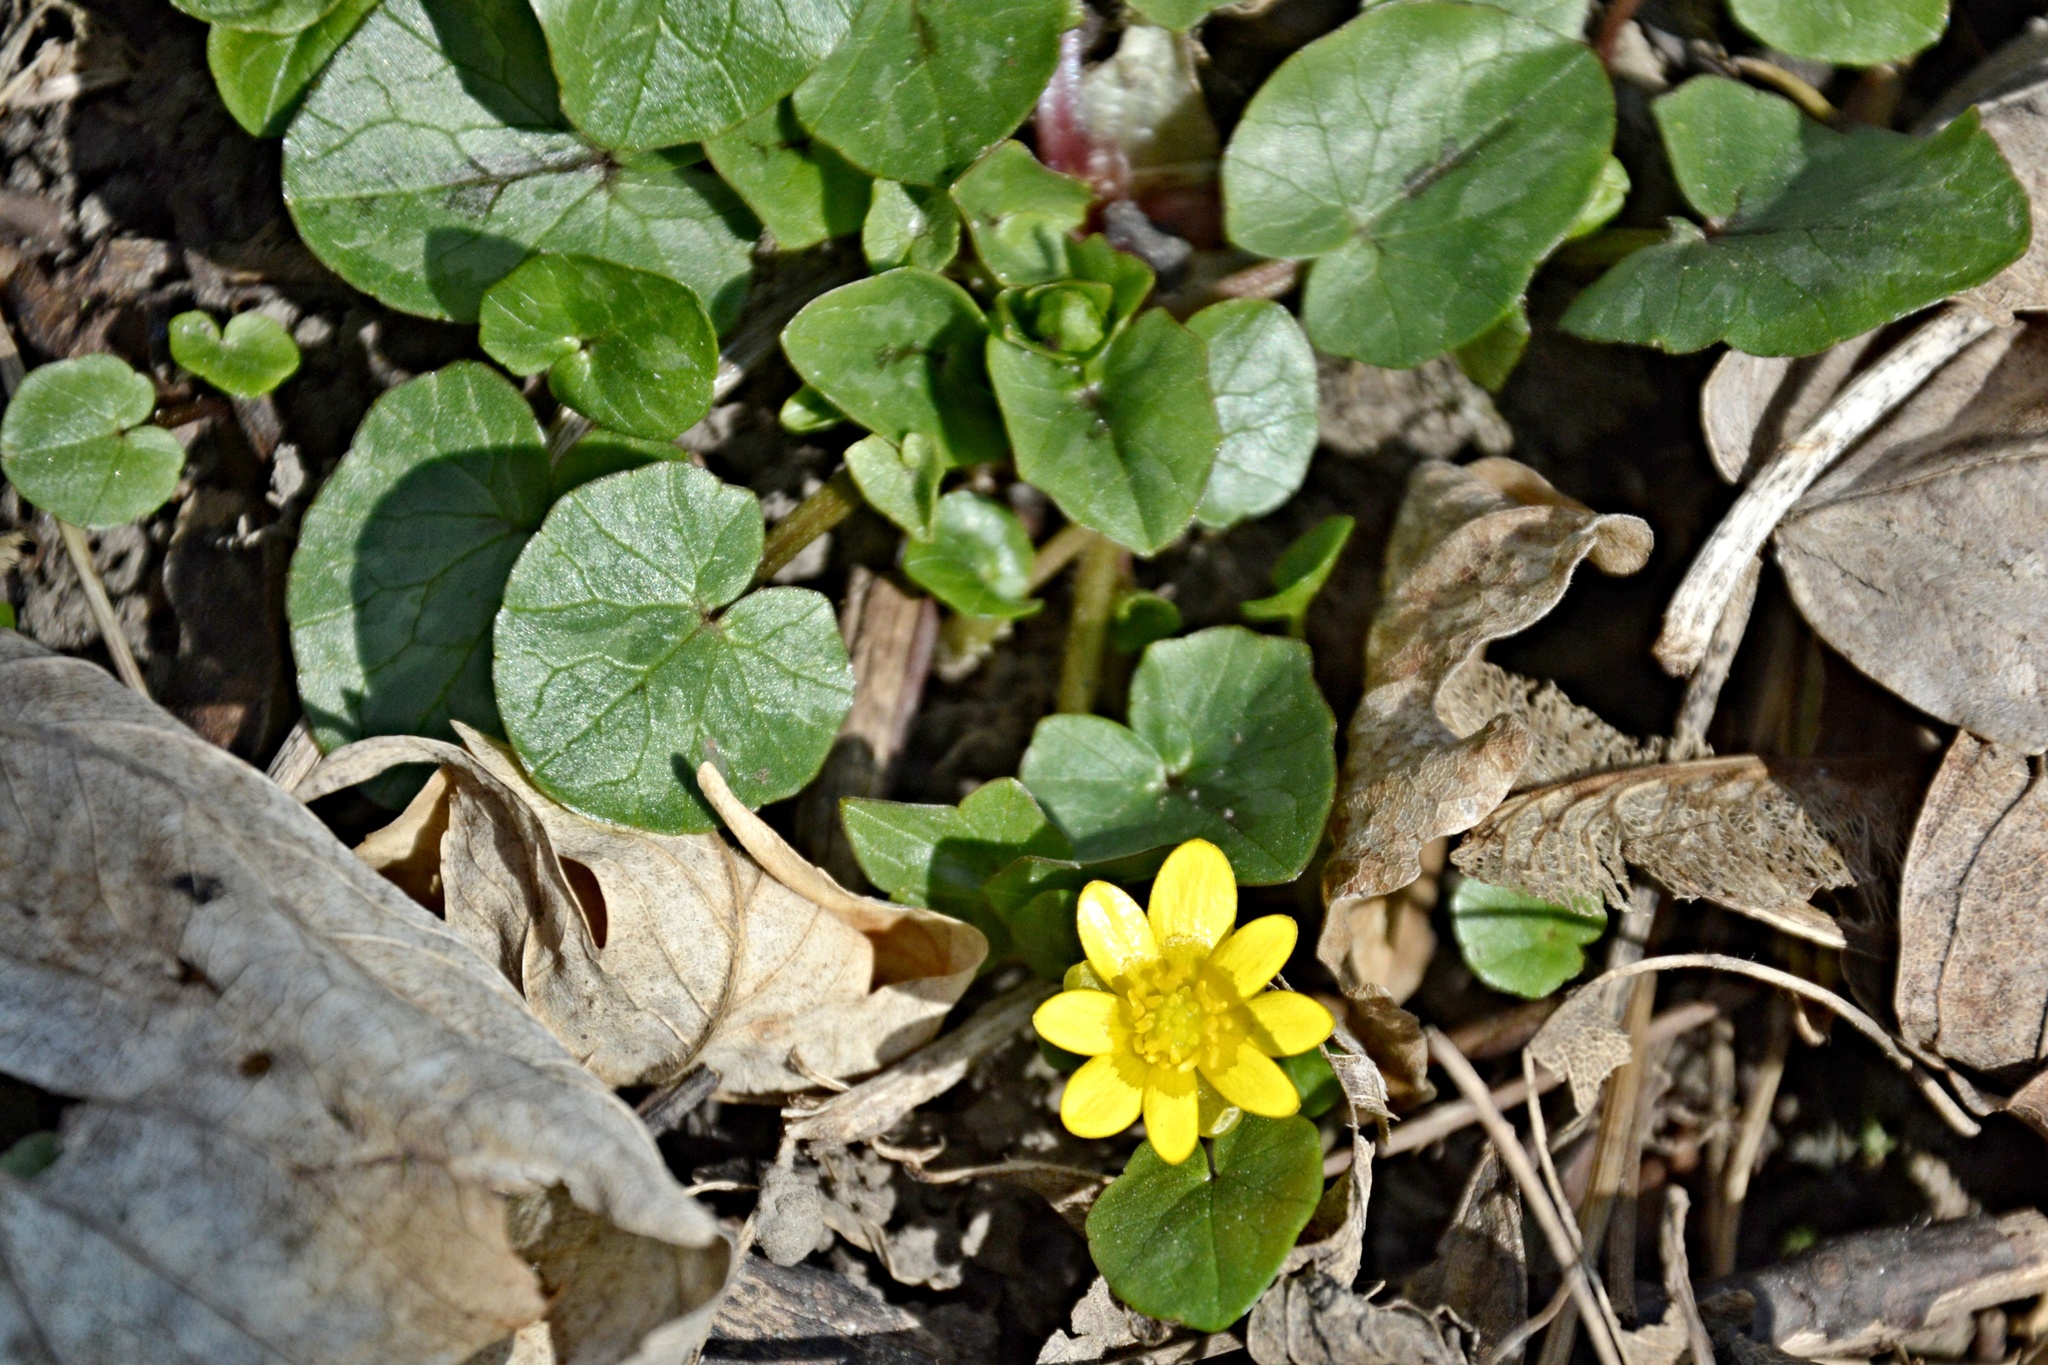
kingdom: Plantae
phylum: Tracheophyta
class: Magnoliopsida
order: Ranunculales
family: Ranunculaceae
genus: Ficaria
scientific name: Ficaria verna
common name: Lesser celandine
